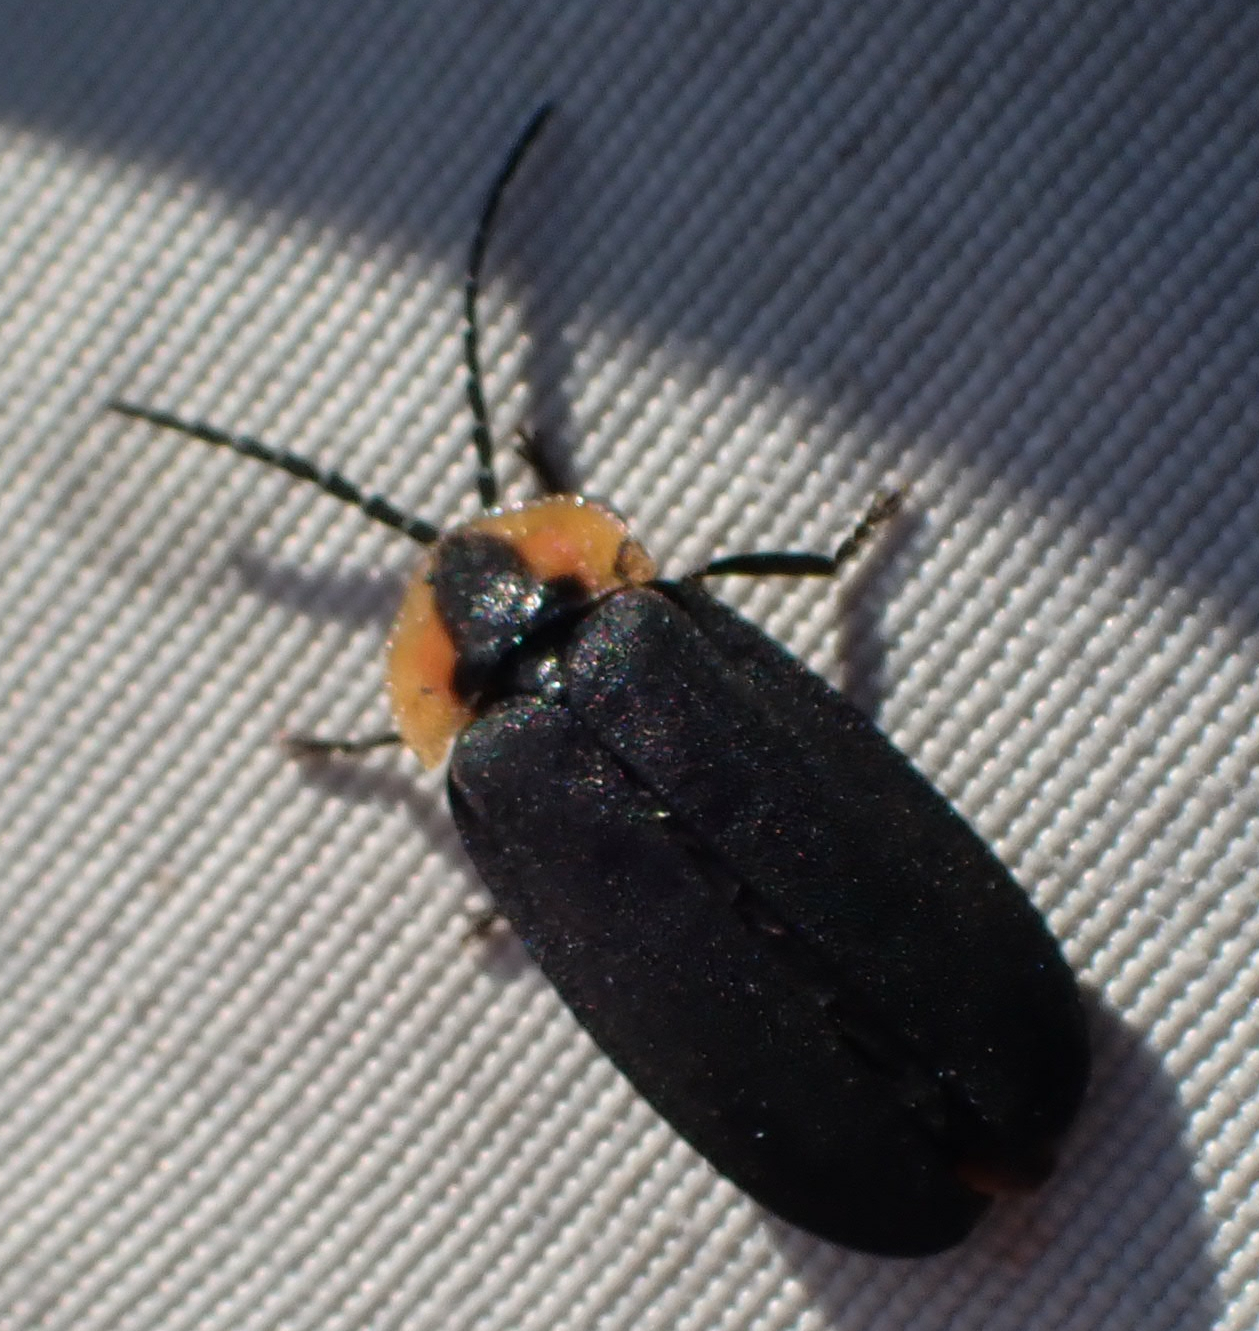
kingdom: Animalia
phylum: Arthropoda
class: Insecta
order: Coleoptera
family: Lampyridae
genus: Lucidota
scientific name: Lucidota atra
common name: Black firefly
